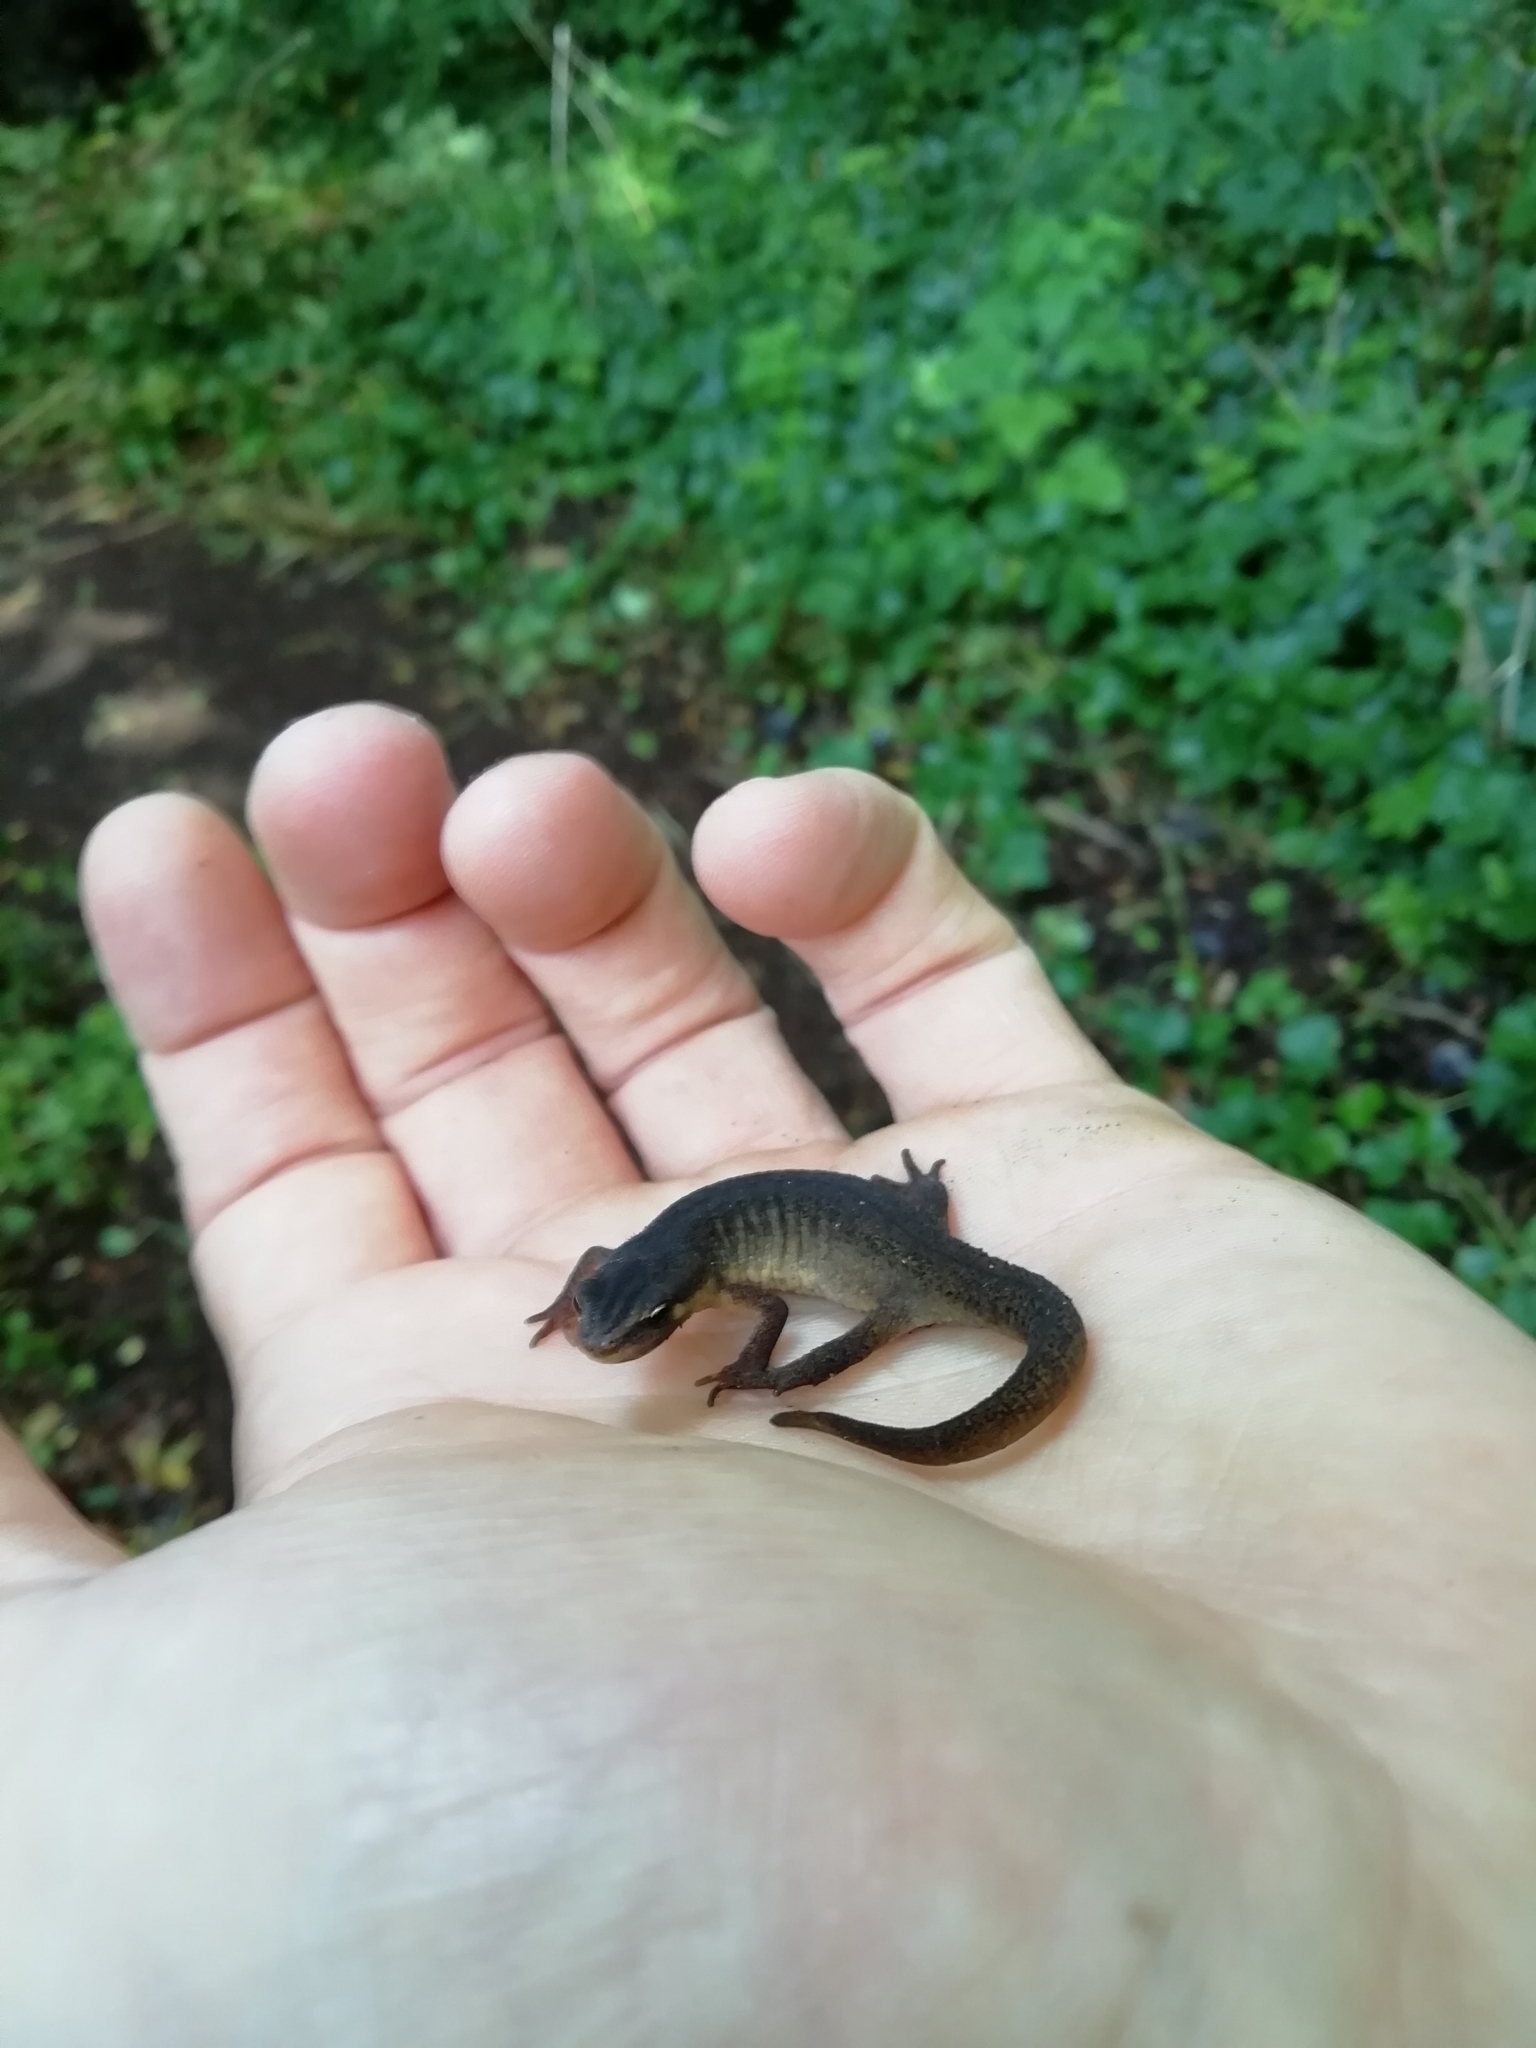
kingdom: Animalia
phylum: Chordata
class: Amphibia
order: Caudata
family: Salamandridae
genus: Lissotriton
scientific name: Lissotriton vulgaris
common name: Smooth newt
